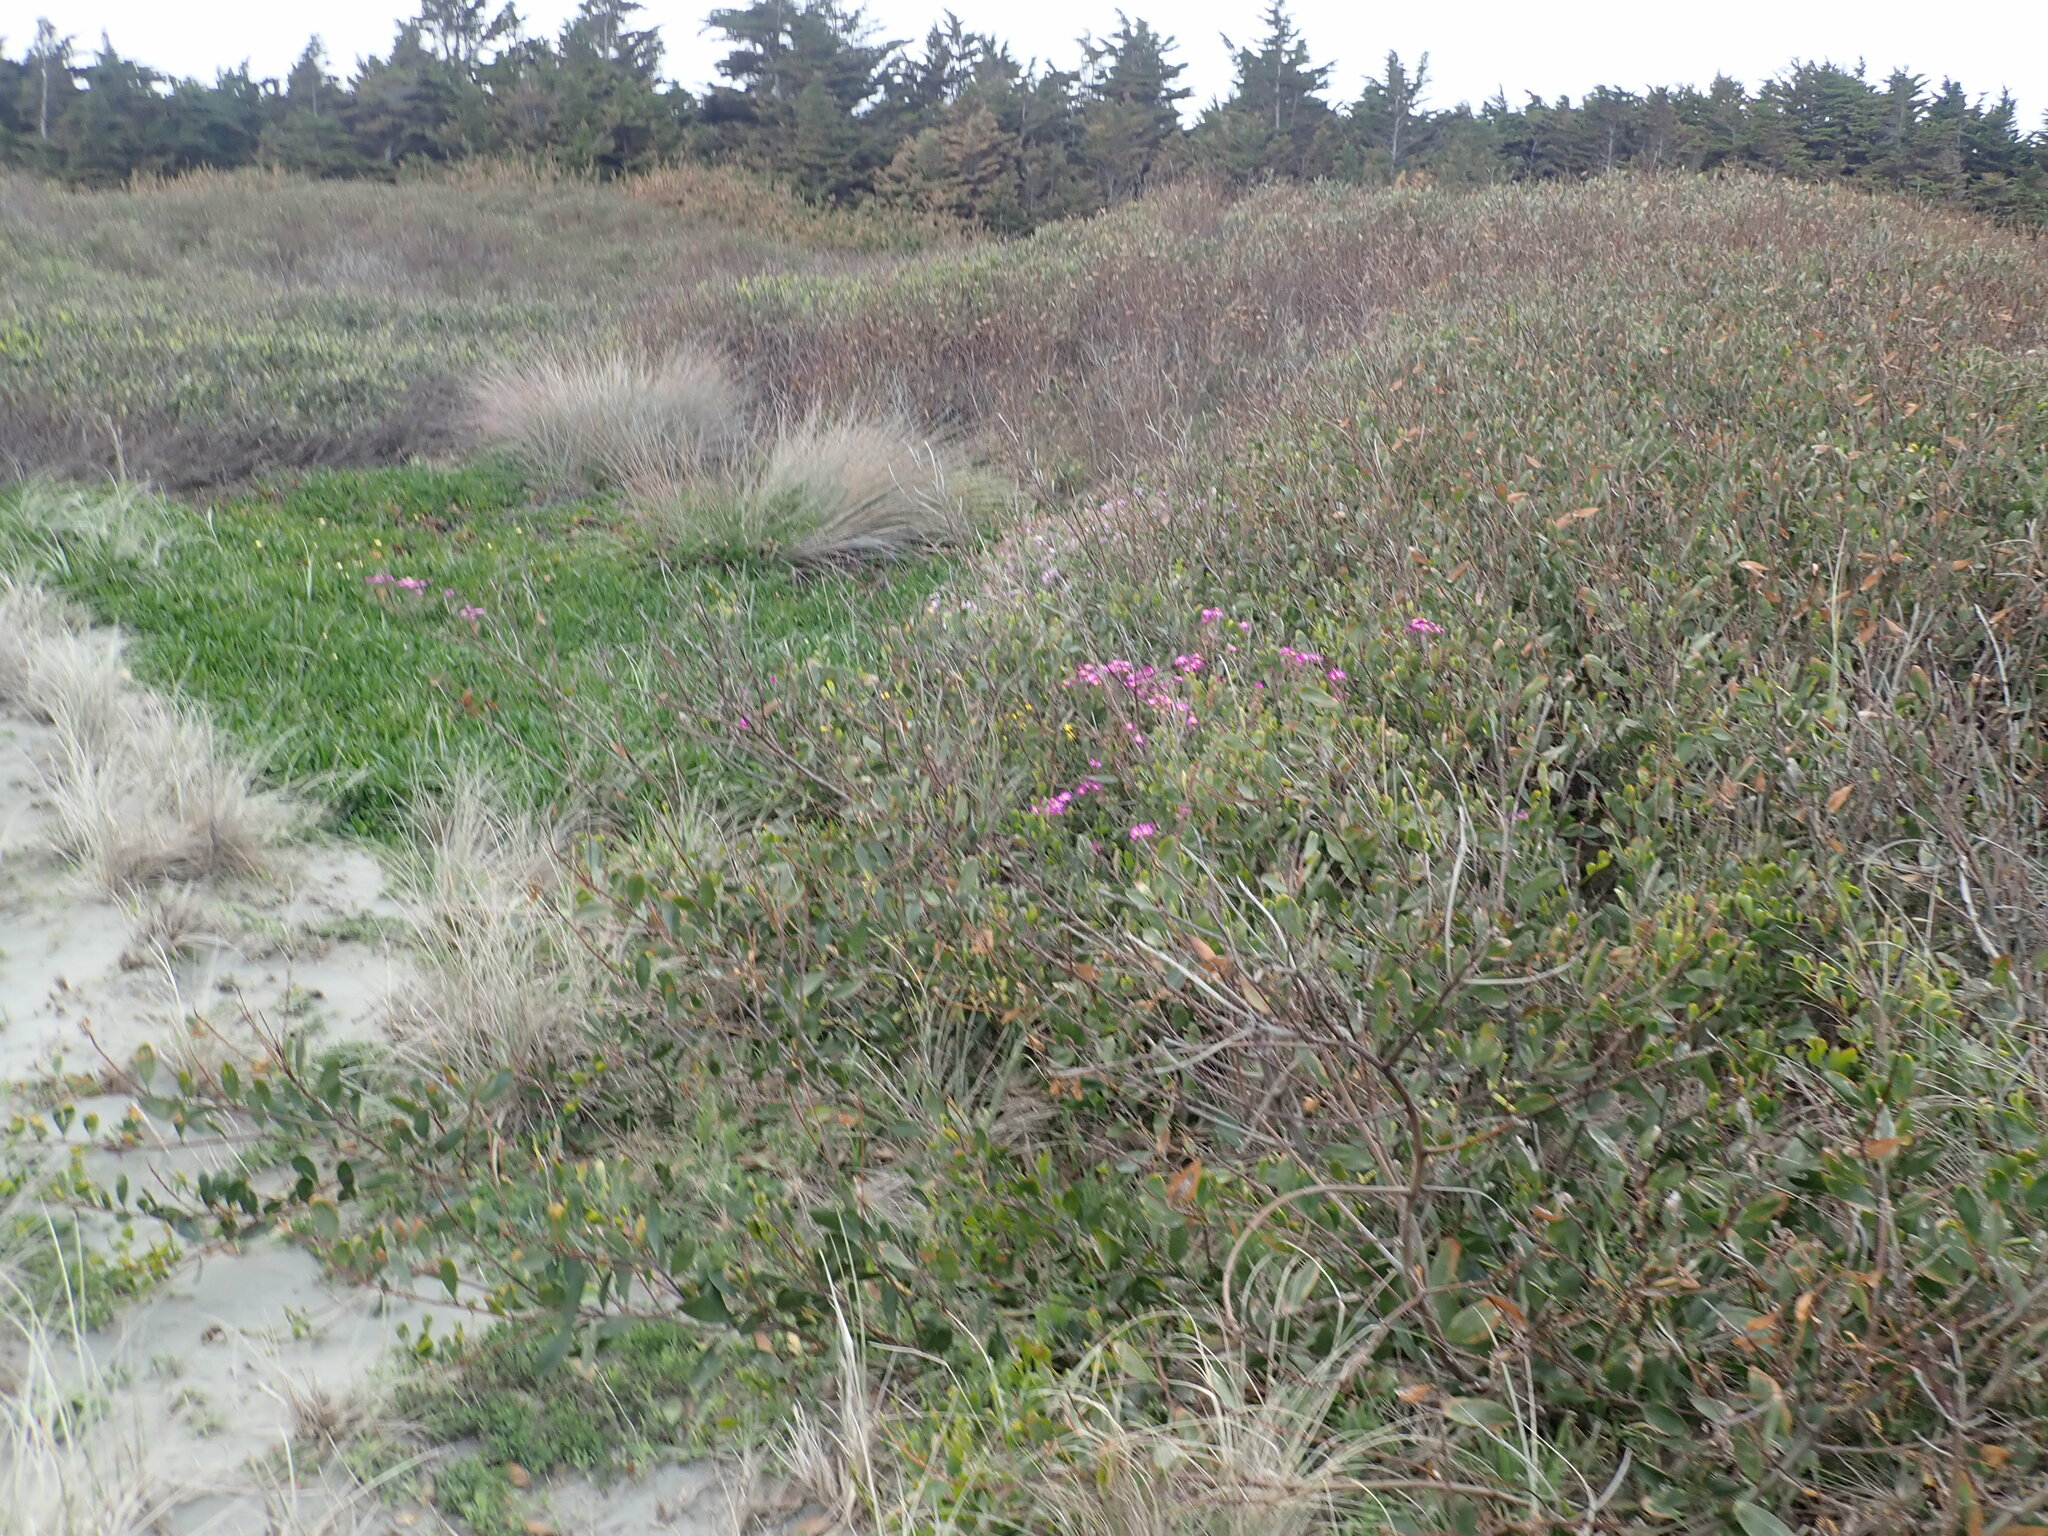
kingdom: Plantae
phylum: Tracheophyta
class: Magnoliopsida
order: Fabales
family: Fabaceae
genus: Acacia
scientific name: Acacia longifolia
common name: Sydney golden wattle
